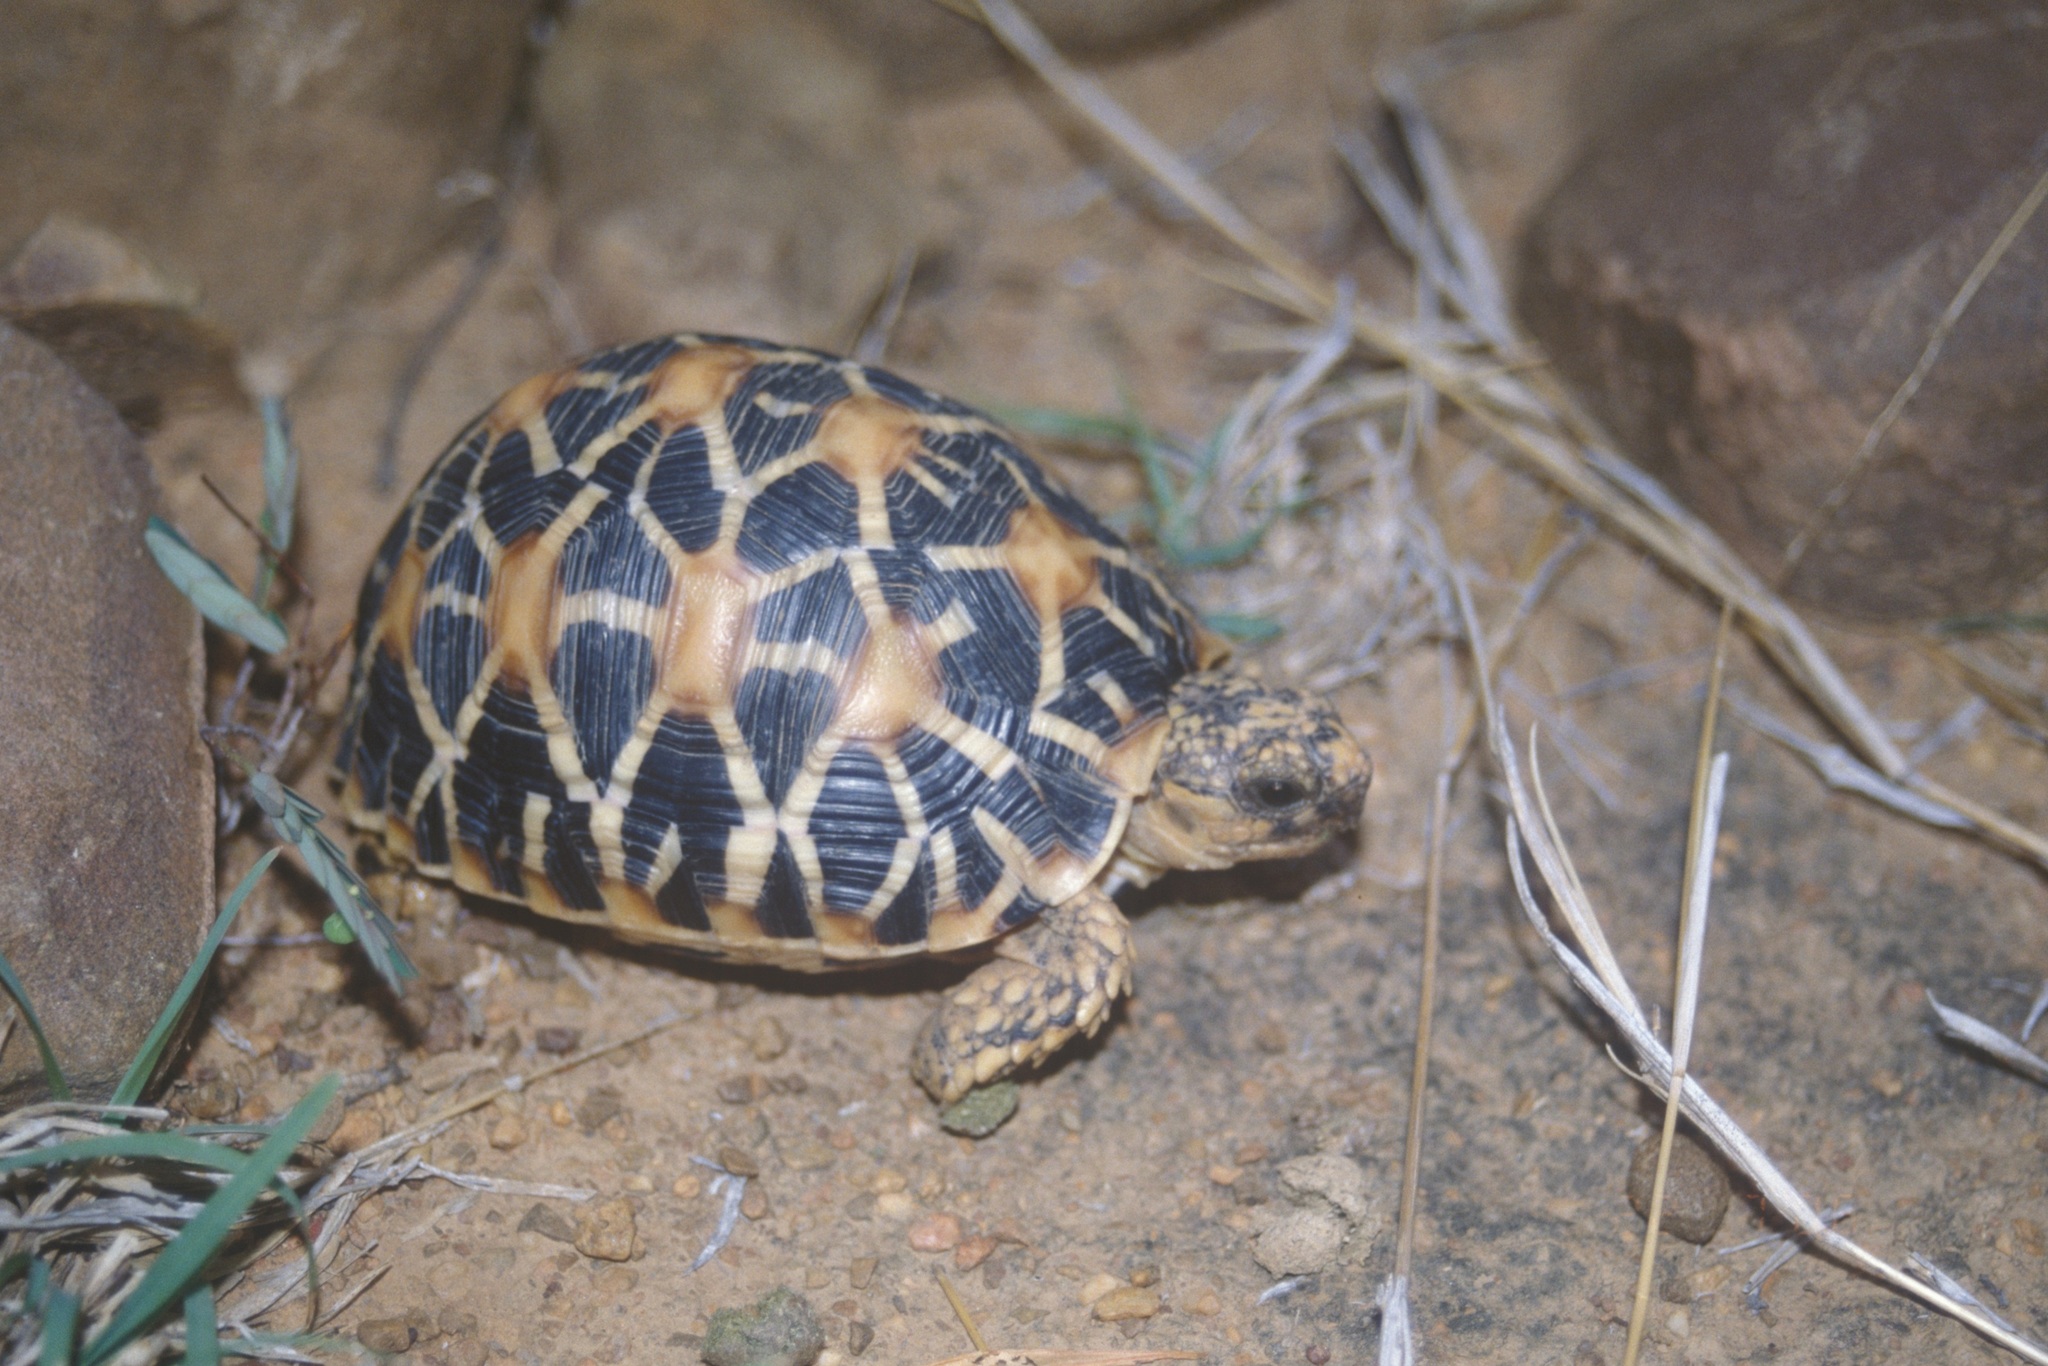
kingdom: Animalia
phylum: Chordata
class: Testudines
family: Testudinidae
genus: Geochelone
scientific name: Geochelone elegans
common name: Indian star tortoise
